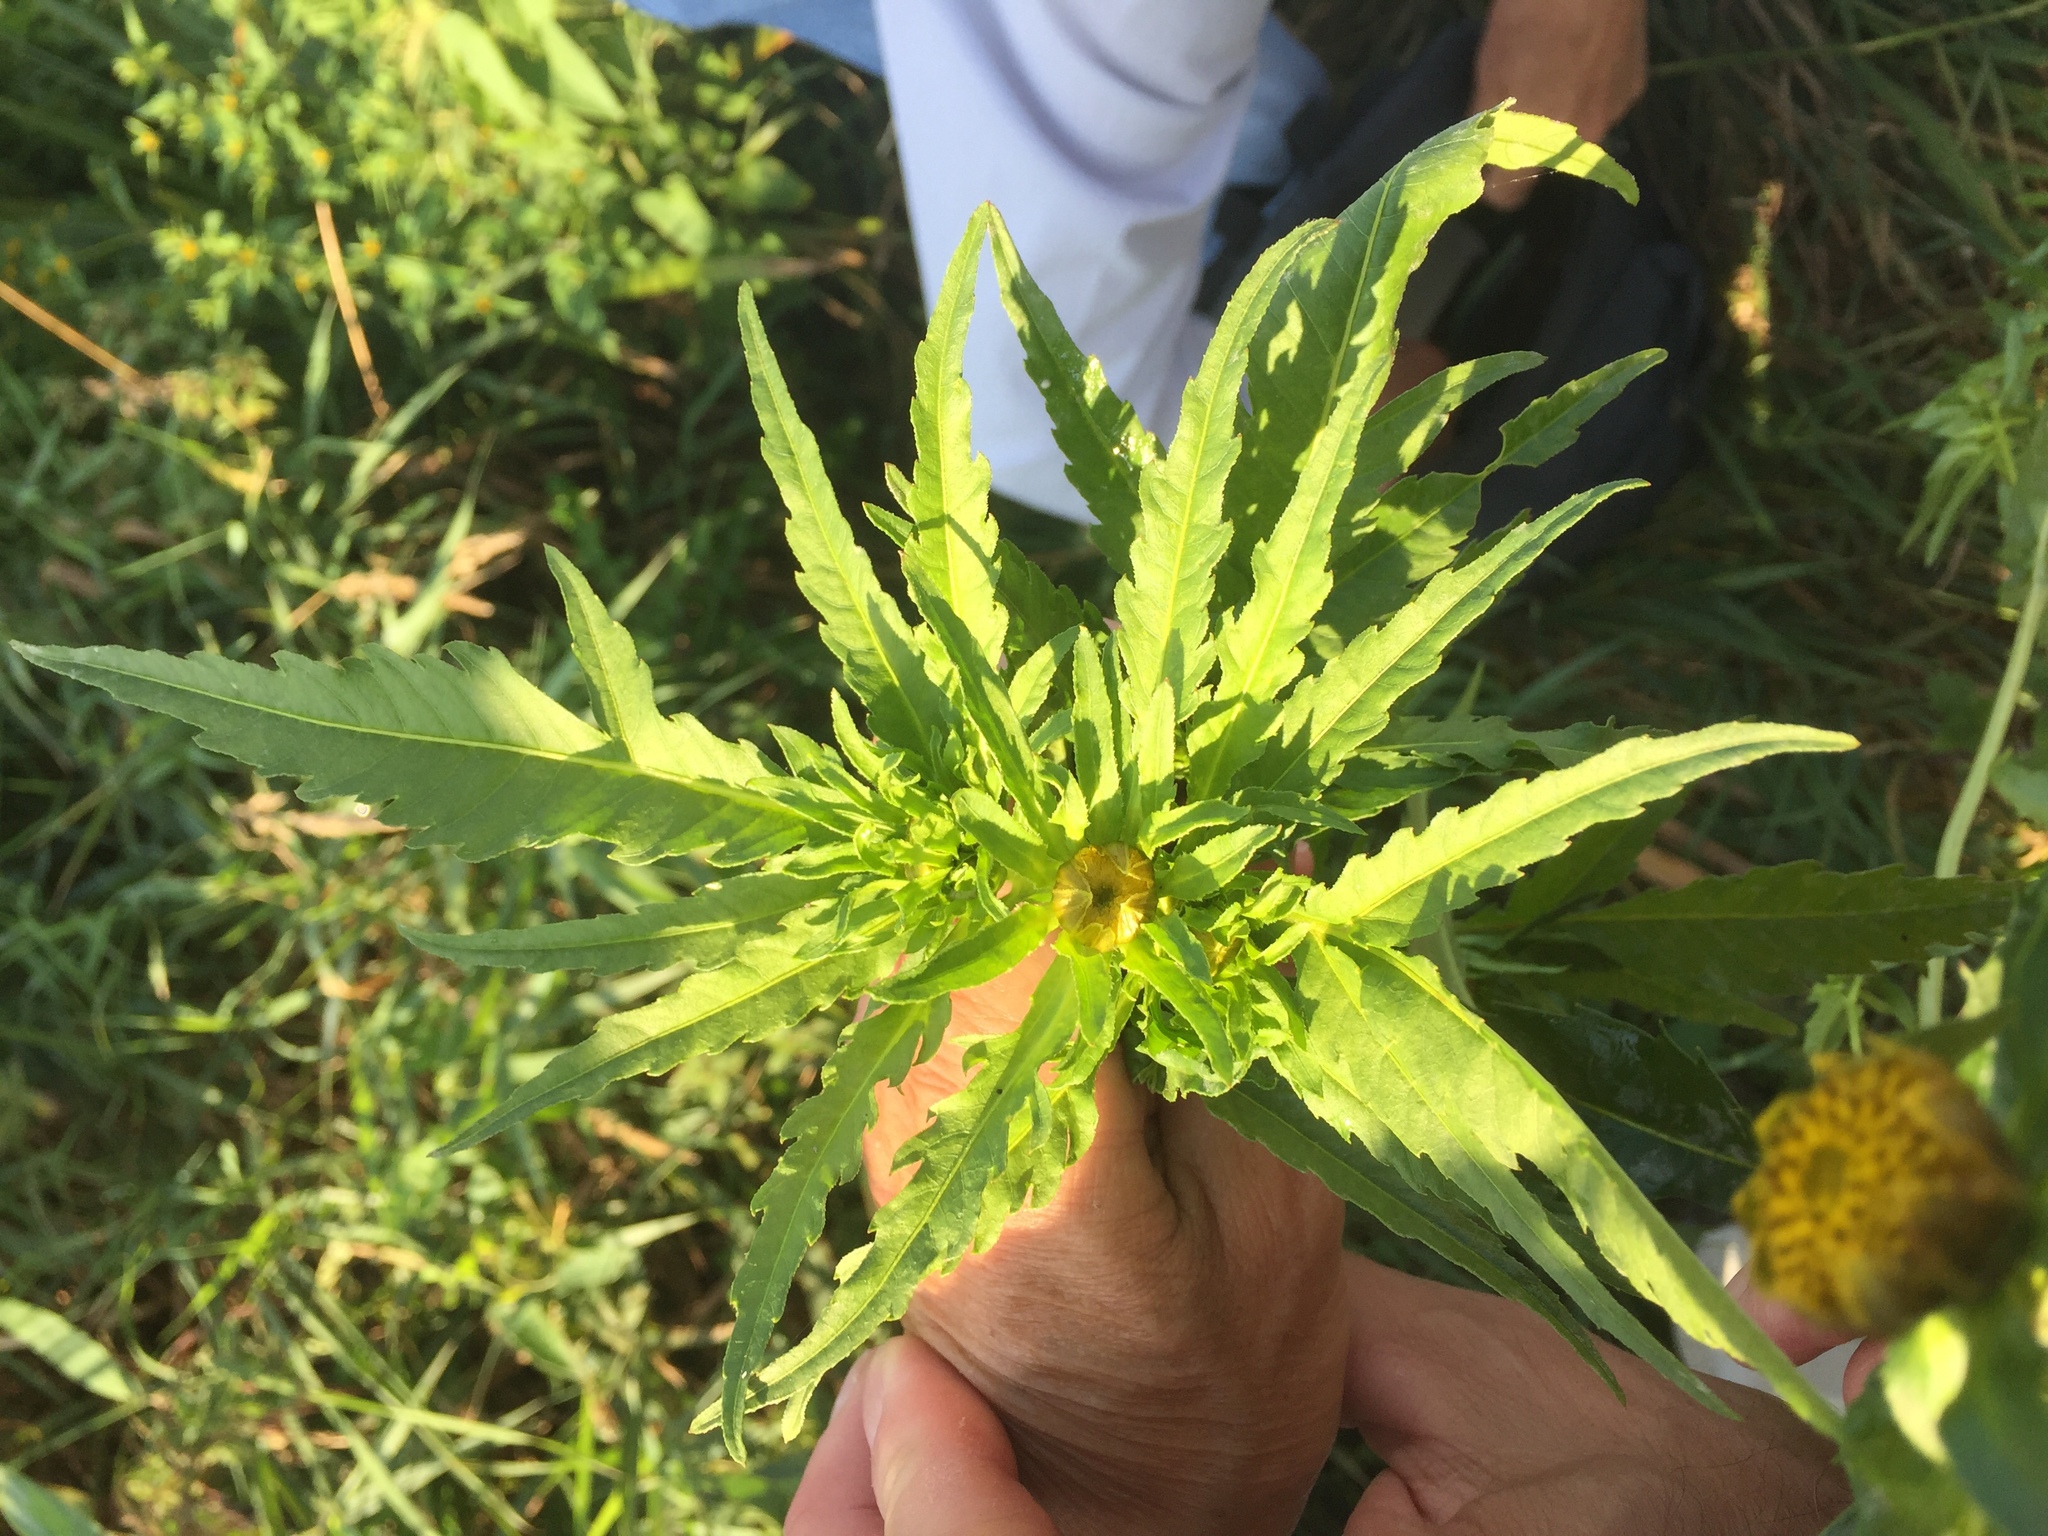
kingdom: Plantae
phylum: Tracheophyta
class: Magnoliopsida
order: Asterales
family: Asteraceae
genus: Bidens
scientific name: Bidens radiata
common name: Radiating bur-marigold
